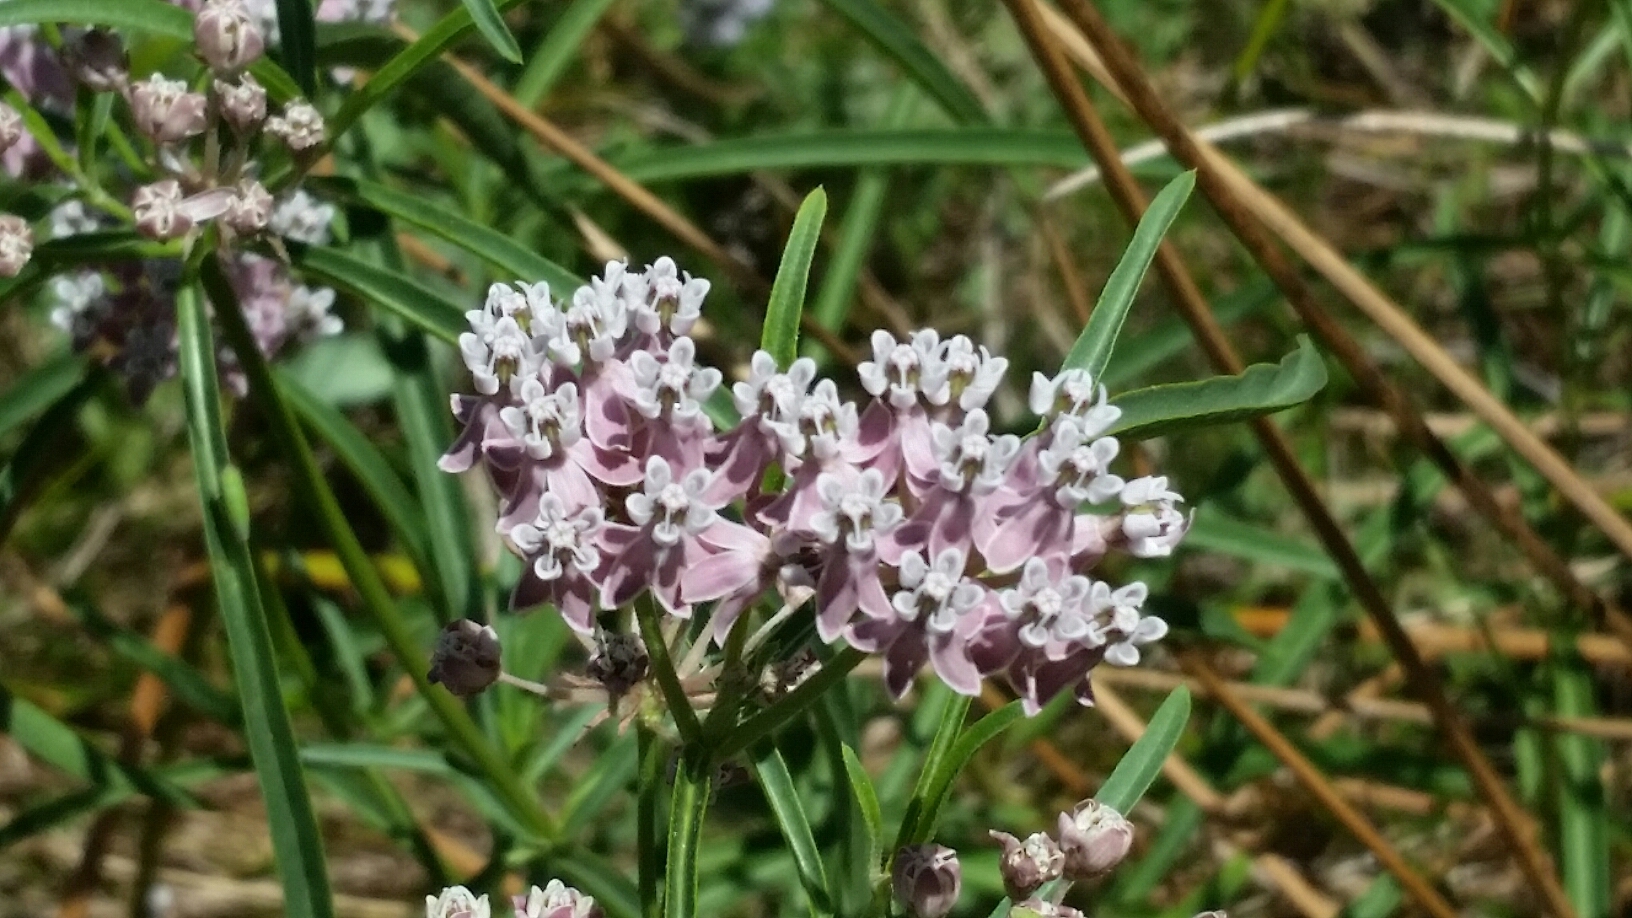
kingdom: Plantae
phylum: Tracheophyta
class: Magnoliopsida
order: Gentianales
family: Apocynaceae
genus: Asclepias
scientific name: Asclepias fascicularis
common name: Mexican milkweed
